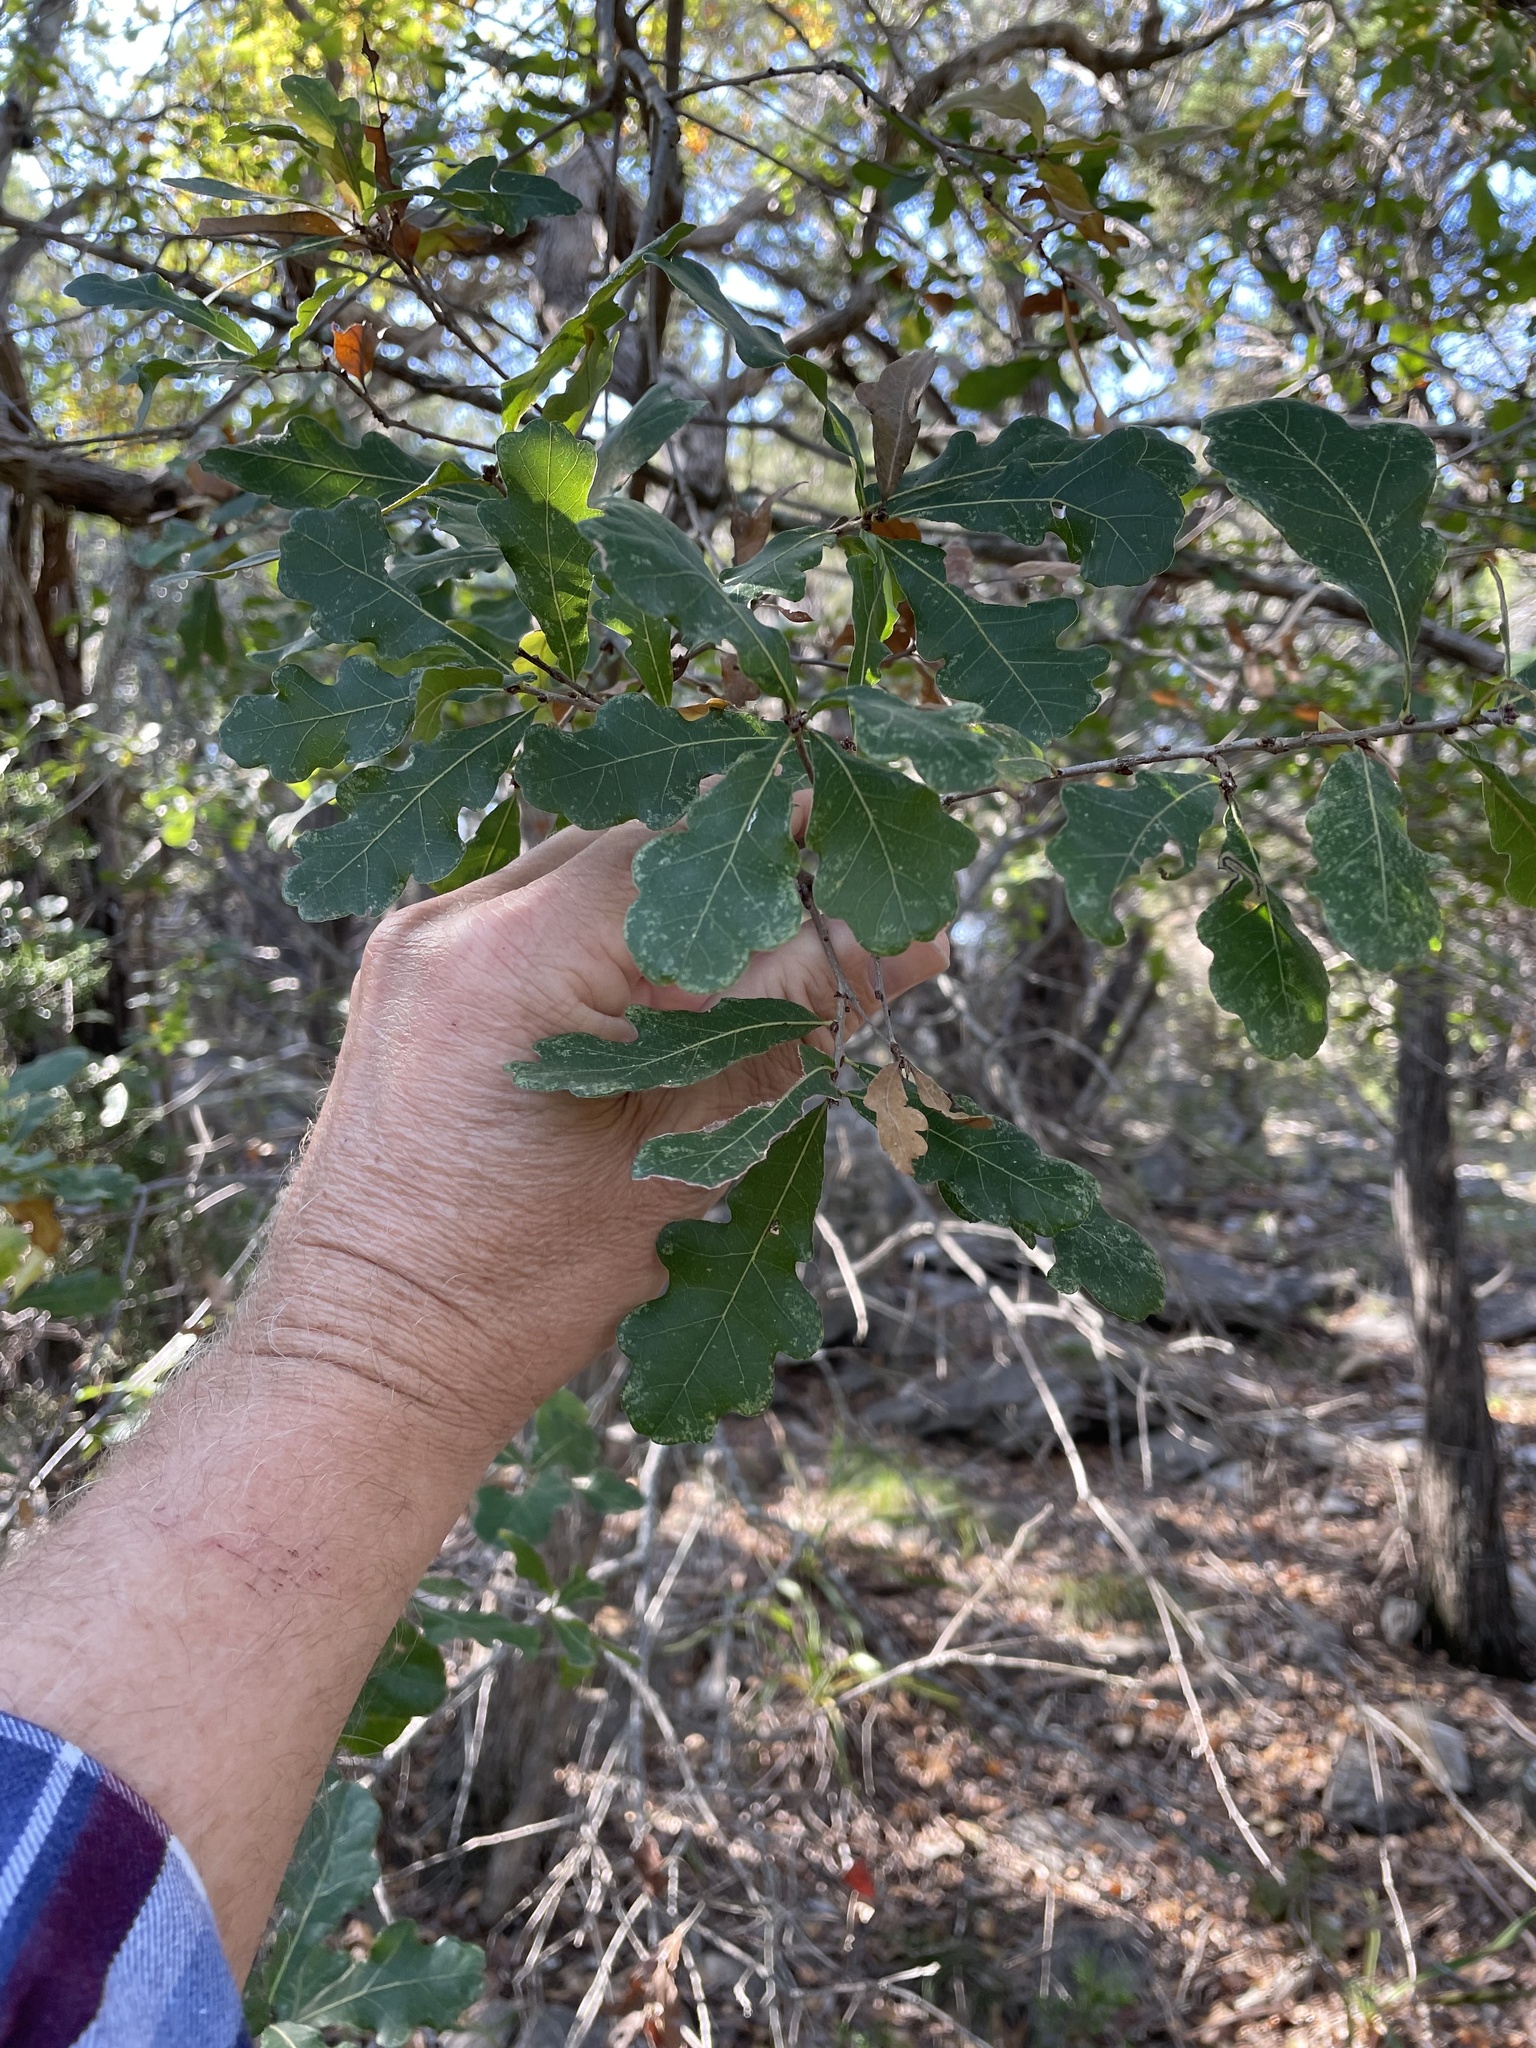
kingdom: Plantae
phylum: Tracheophyta
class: Magnoliopsida
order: Fagales
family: Fagaceae
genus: Quercus
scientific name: Quercus sinuata
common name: Durand oak
